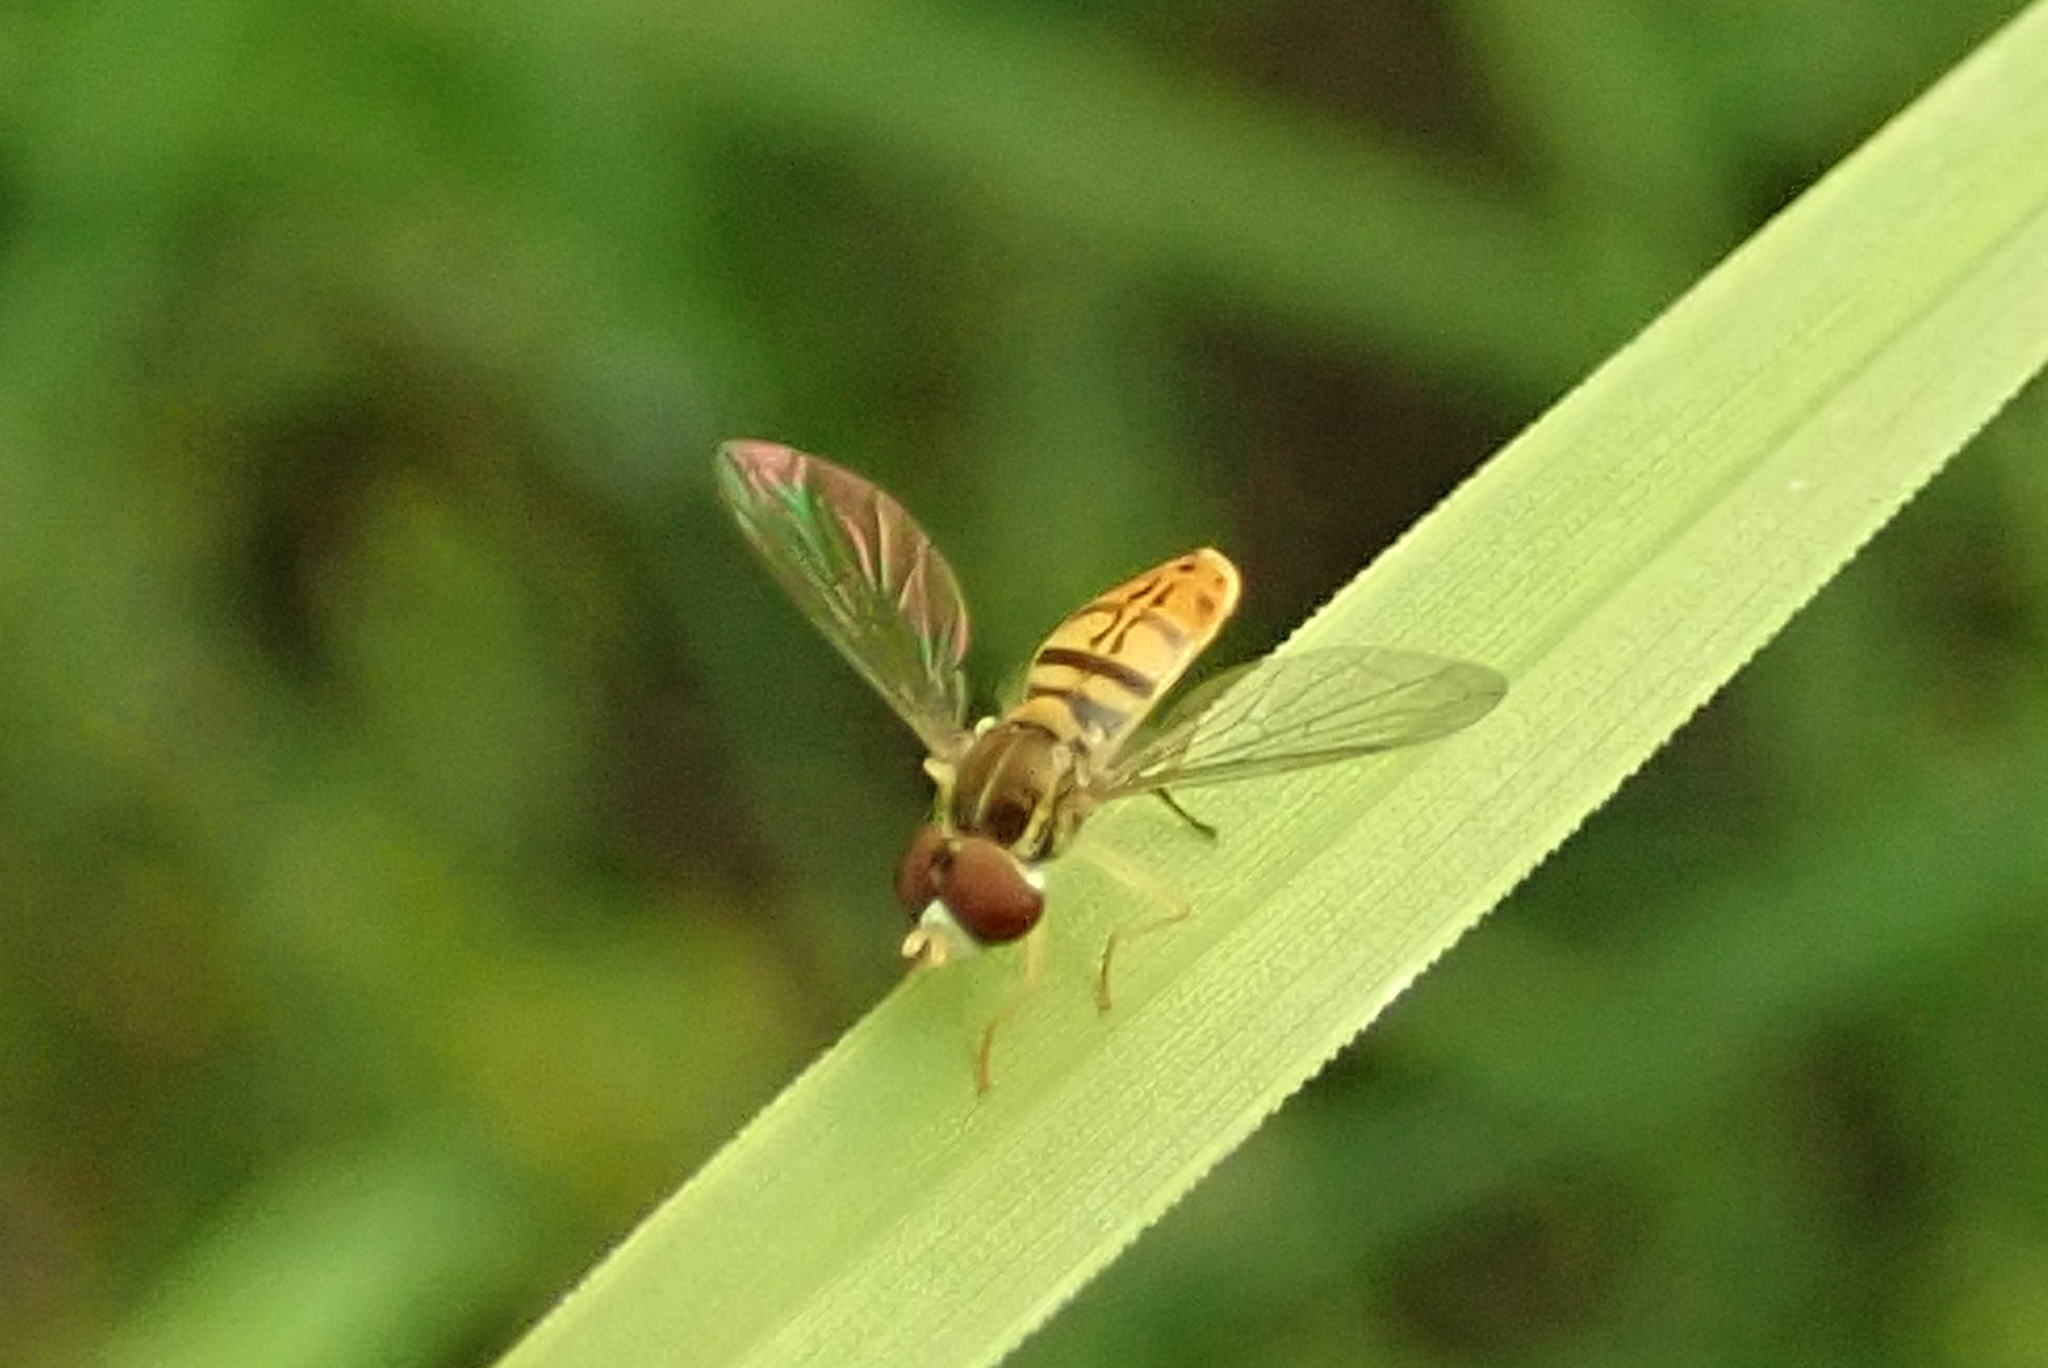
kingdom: Animalia
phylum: Arthropoda
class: Insecta
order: Diptera
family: Syrphidae
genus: Toxomerus
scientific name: Toxomerus marginatus
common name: Syrphid fly
